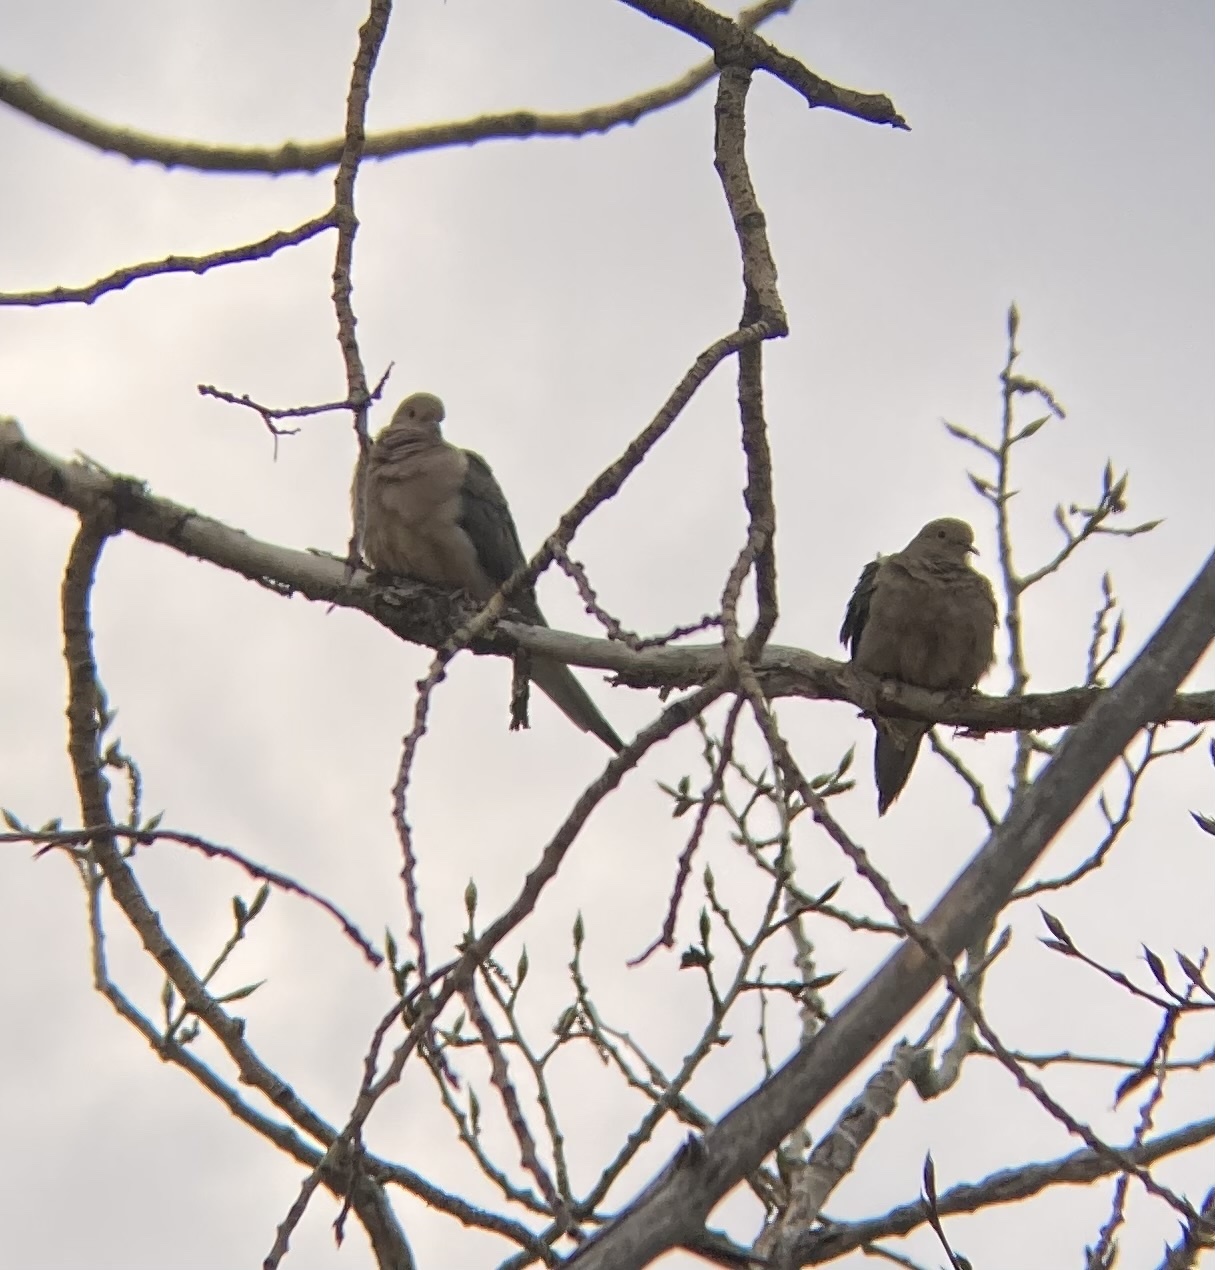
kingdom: Animalia
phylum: Chordata
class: Aves
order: Columbiformes
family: Columbidae
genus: Zenaida
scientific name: Zenaida macroura
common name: Mourning dove
